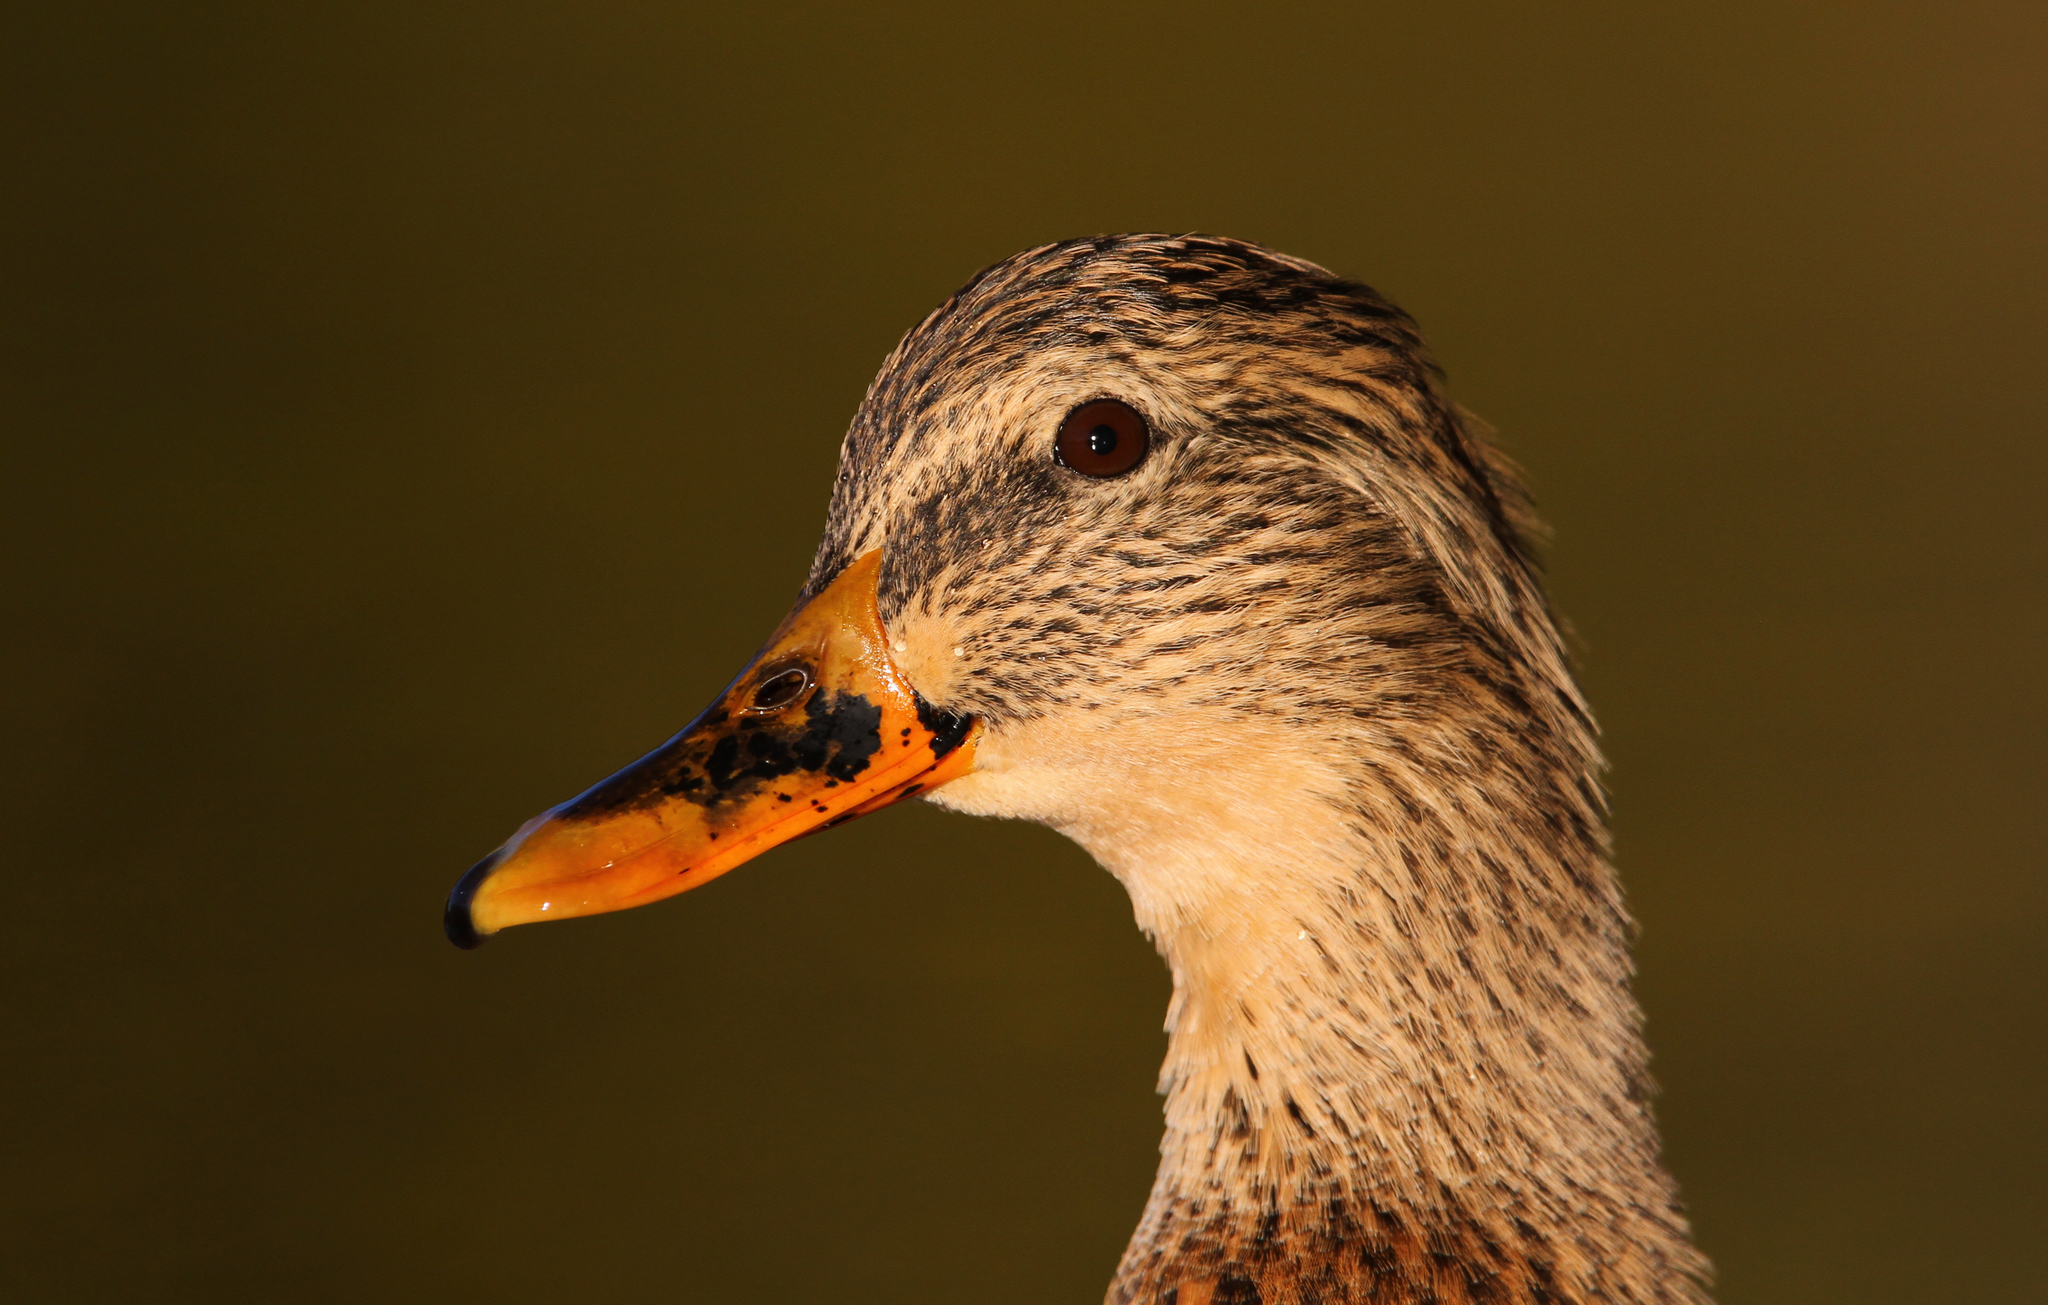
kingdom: Animalia
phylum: Chordata
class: Aves
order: Anseriformes
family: Anatidae
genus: Anas
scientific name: Anas platyrhynchos
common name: Mallard
